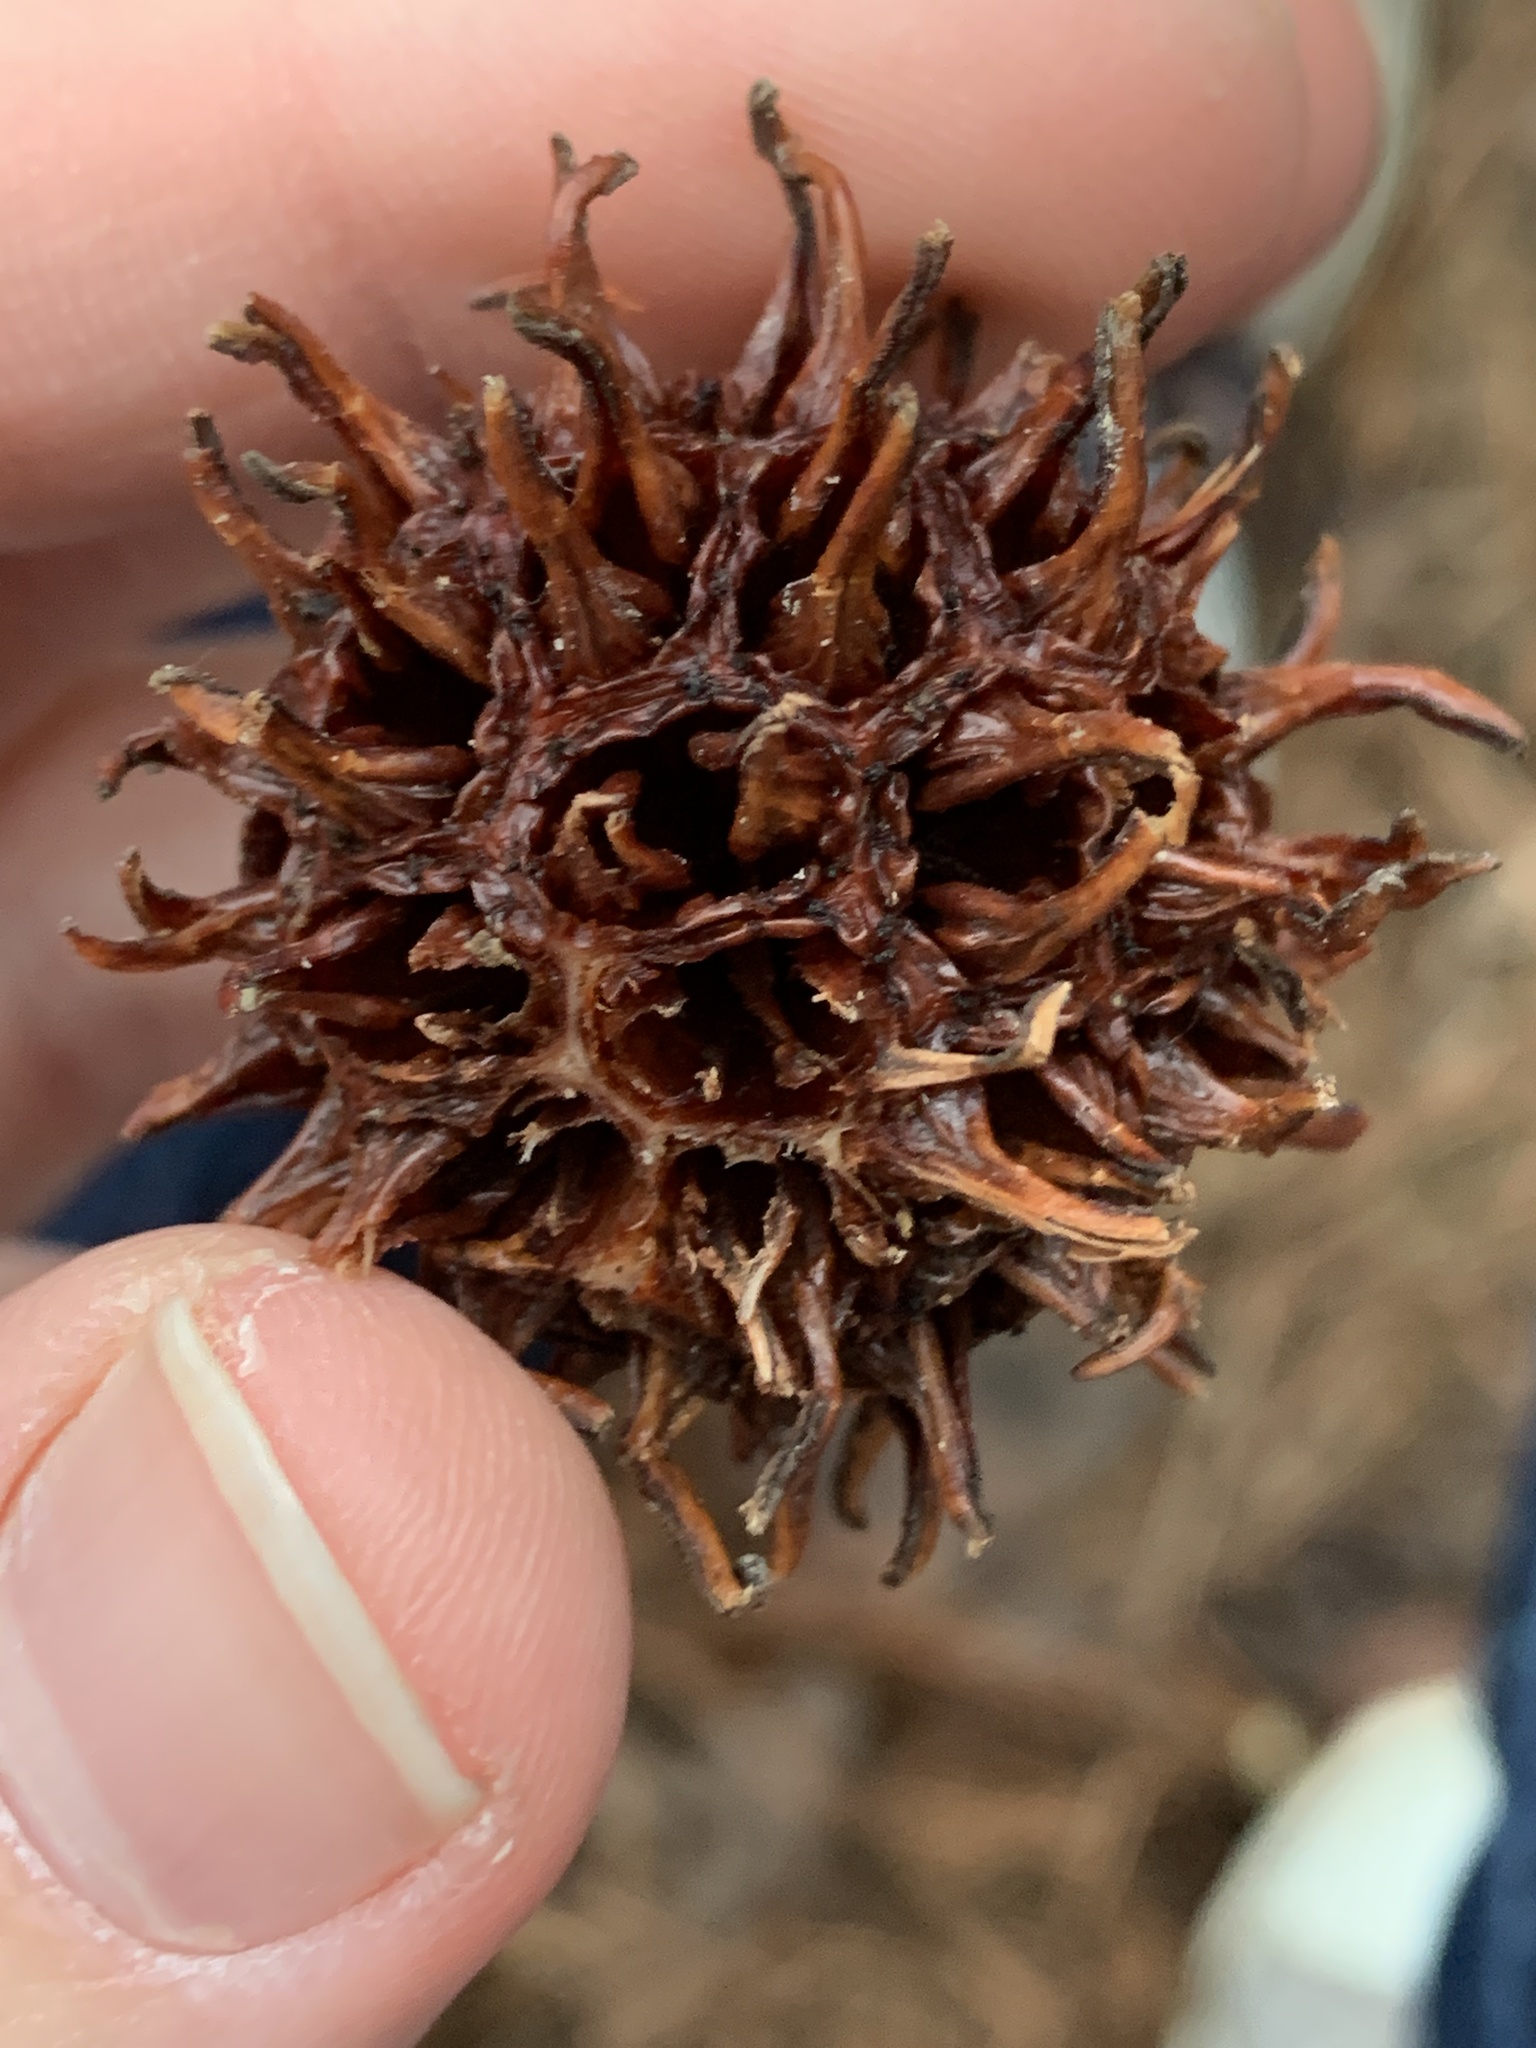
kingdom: Plantae
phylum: Tracheophyta
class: Magnoliopsida
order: Saxifragales
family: Altingiaceae
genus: Liquidambar
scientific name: Liquidambar styraciflua
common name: Sweet gum
